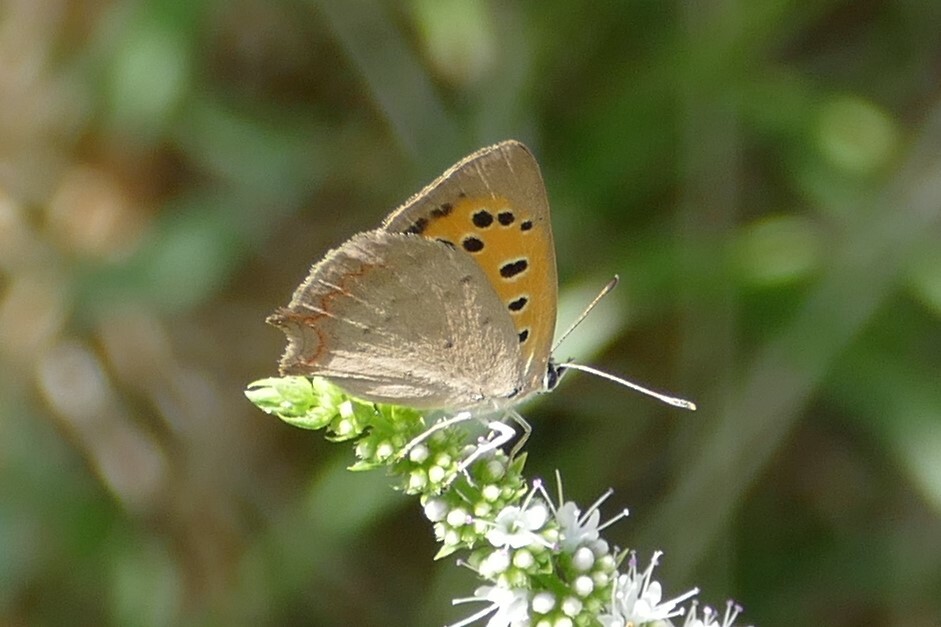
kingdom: Animalia
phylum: Arthropoda
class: Insecta
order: Lepidoptera
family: Lycaenidae
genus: Lycaena
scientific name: Lycaena phlaeas
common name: Small copper
